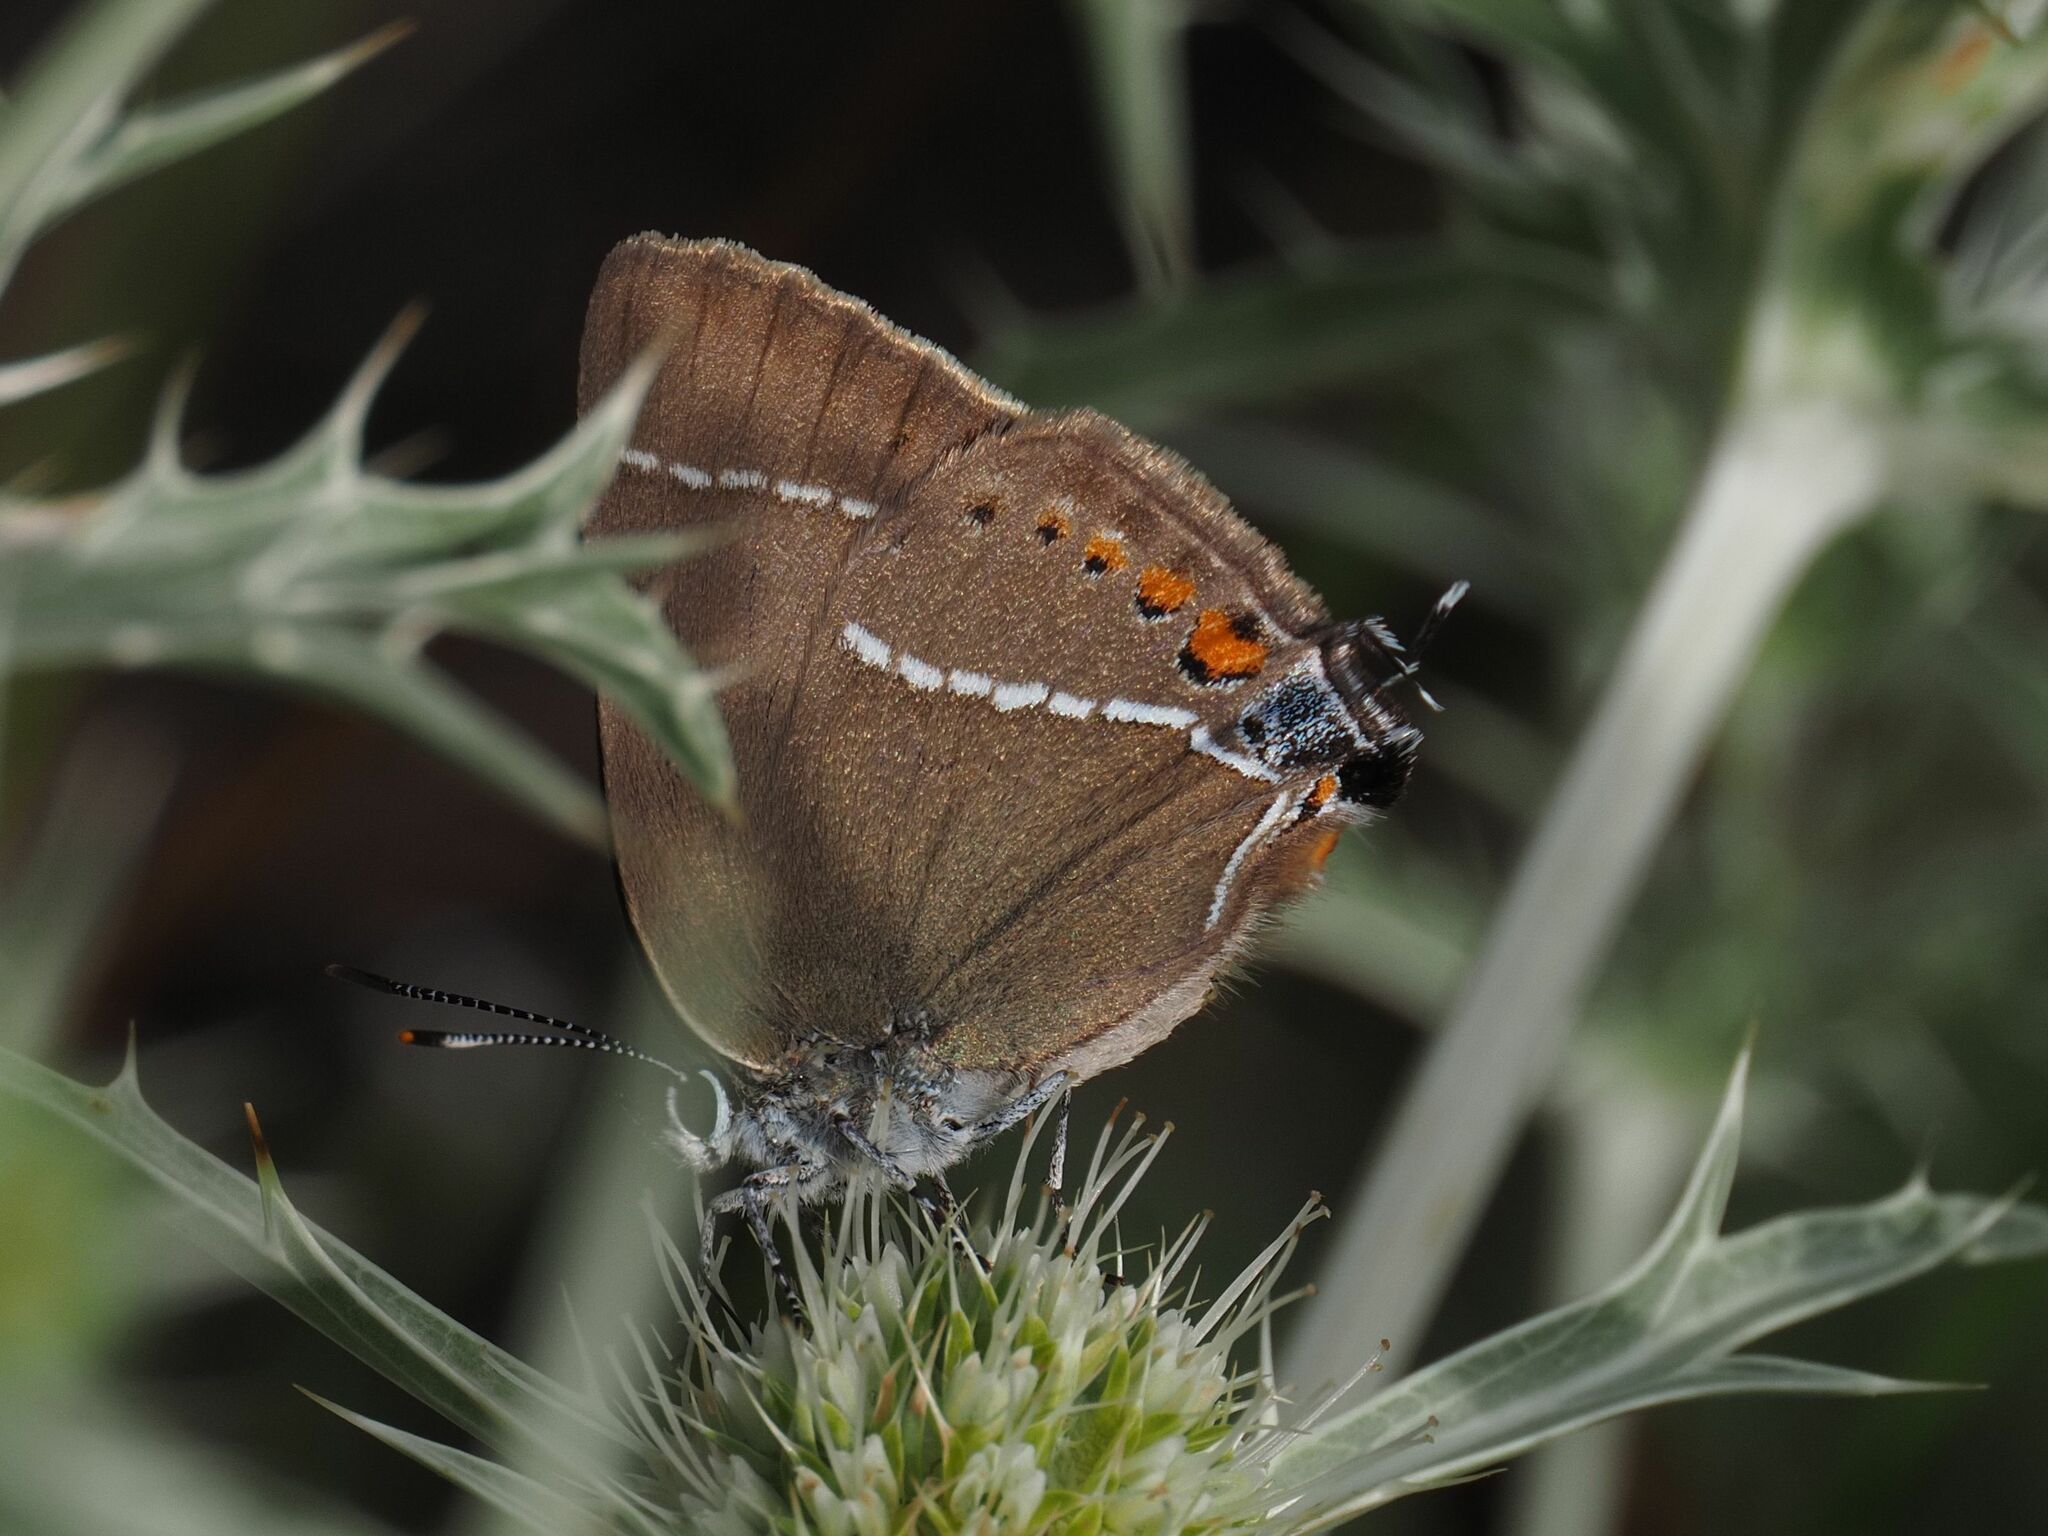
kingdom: Animalia
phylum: Arthropoda
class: Insecta
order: Lepidoptera
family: Lycaenidae
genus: Tuttiola
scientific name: Tuttiola spini
